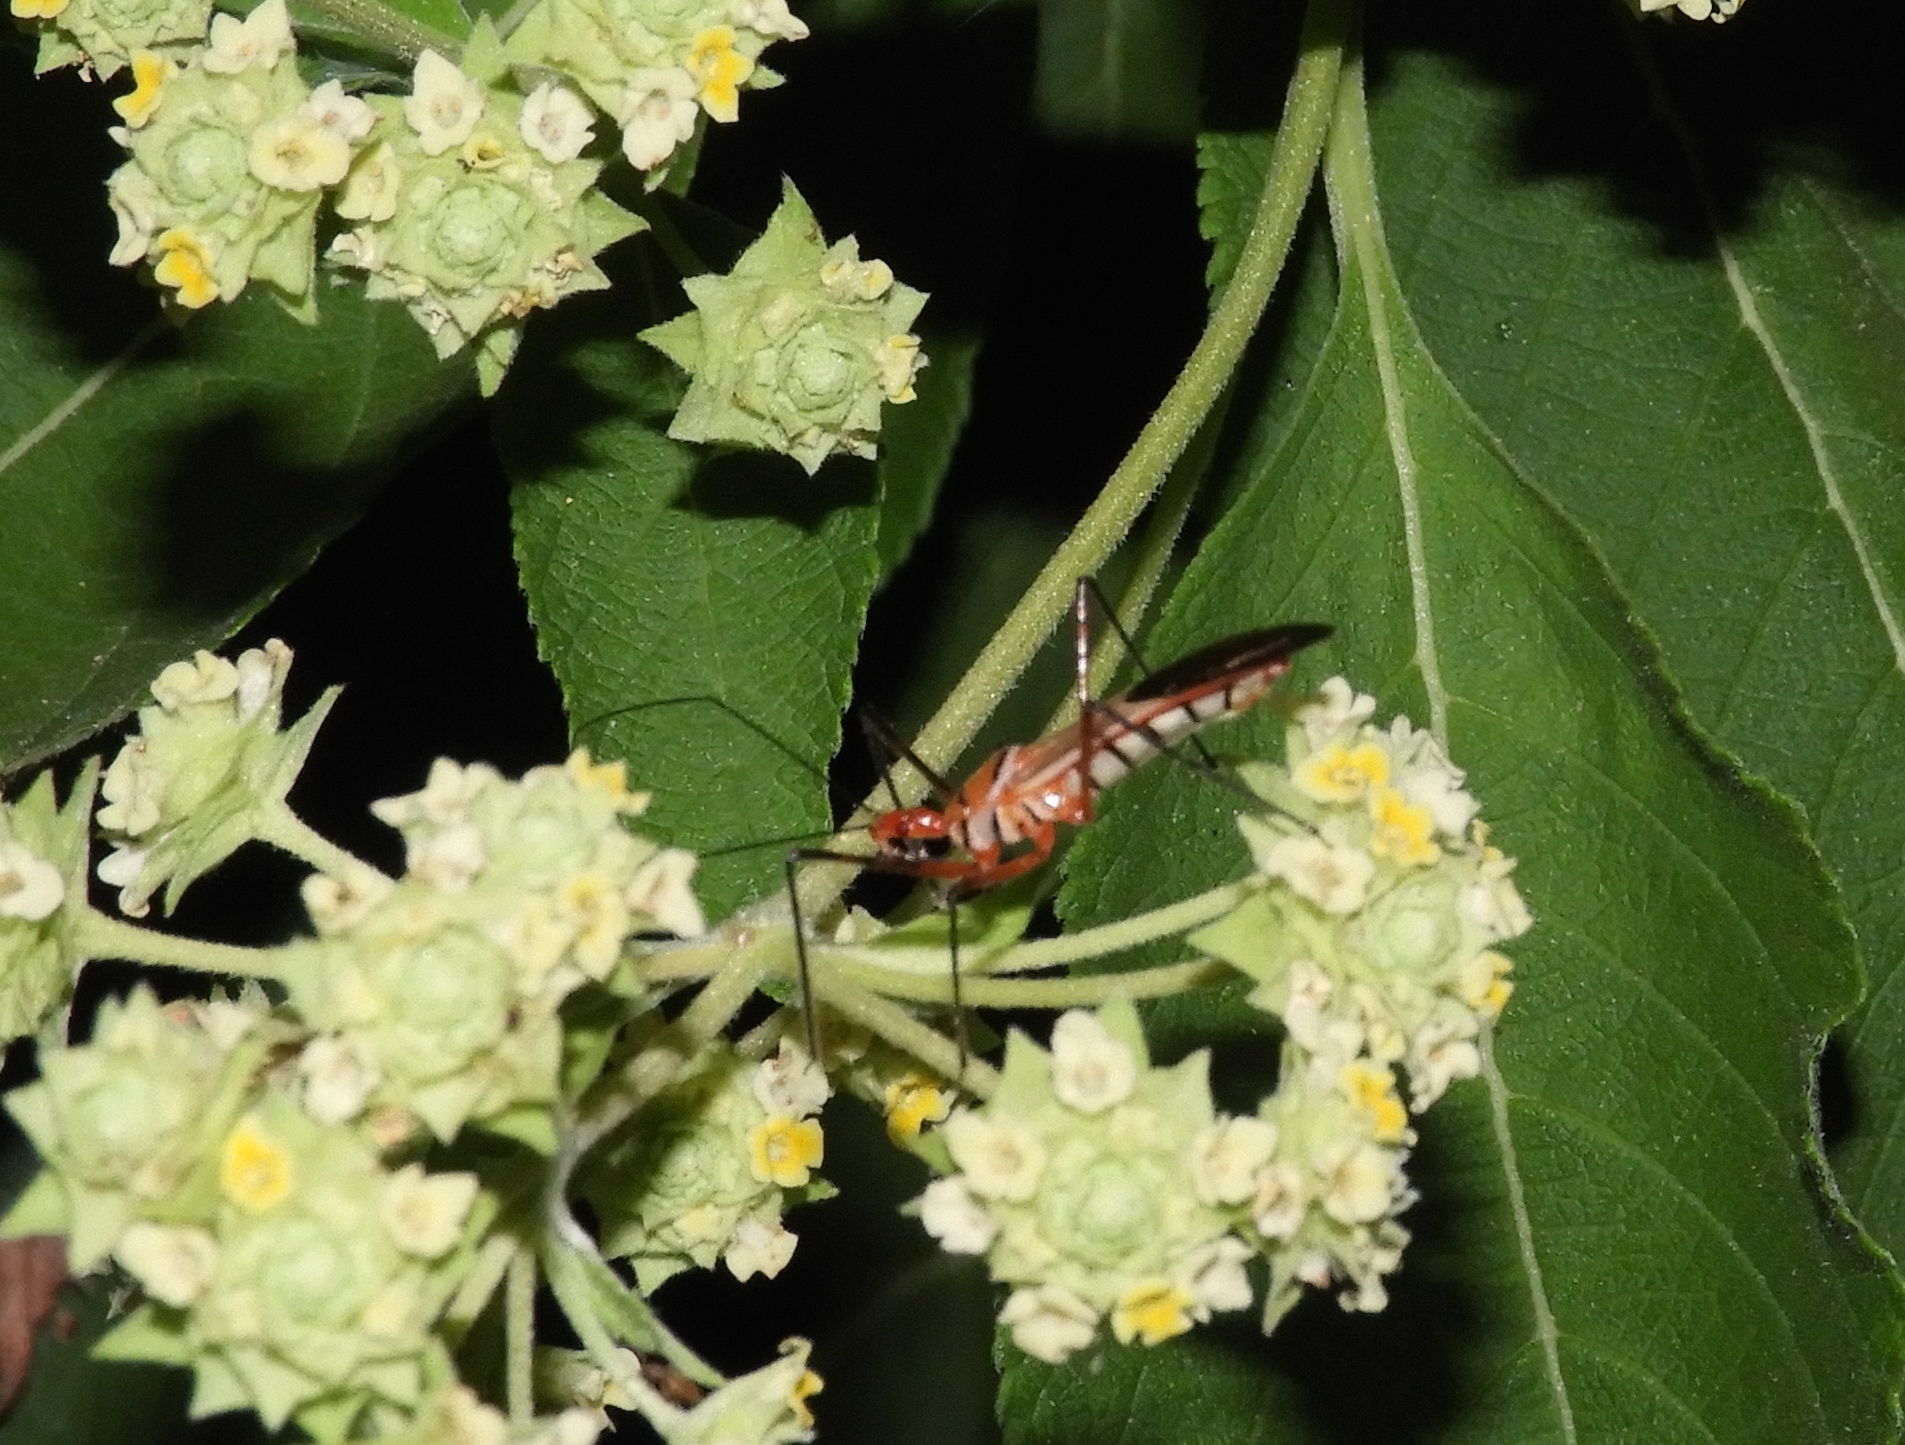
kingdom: Animalia
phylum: Arthropoda
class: Insecta
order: Hemiptera
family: Reduviidae
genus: Zelus
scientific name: Zelus grassans
